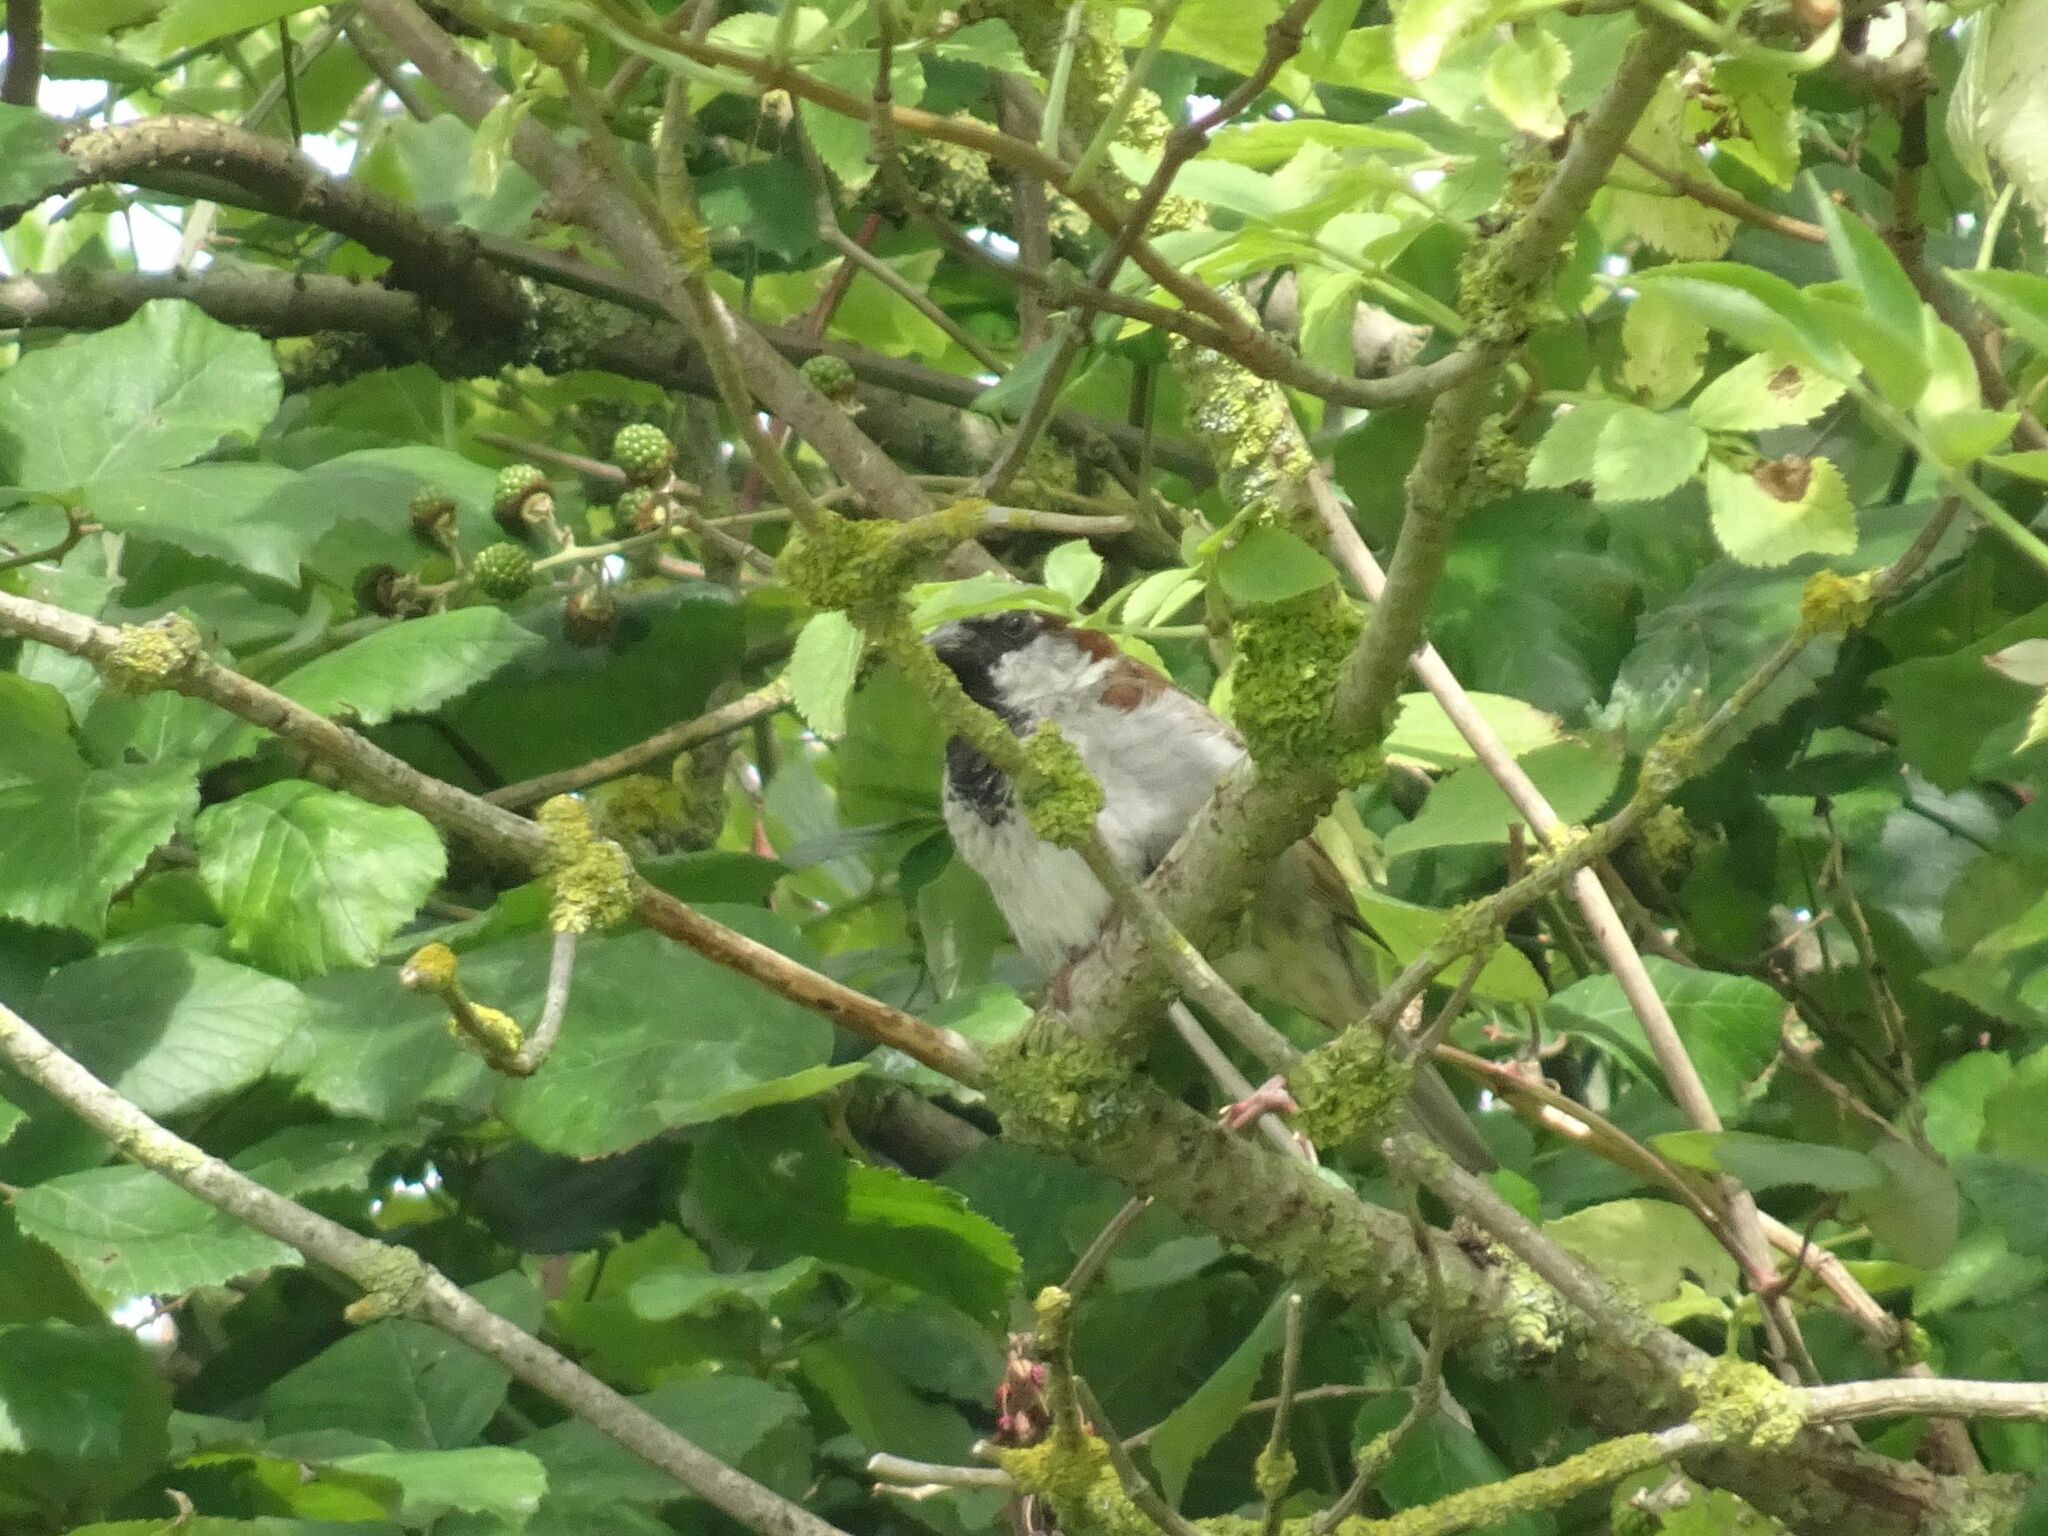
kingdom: Animalia
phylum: Chordata
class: Aves
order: Passeriformes
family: Passeridae
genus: Passer
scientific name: Passer domesticus
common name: House sparrow
